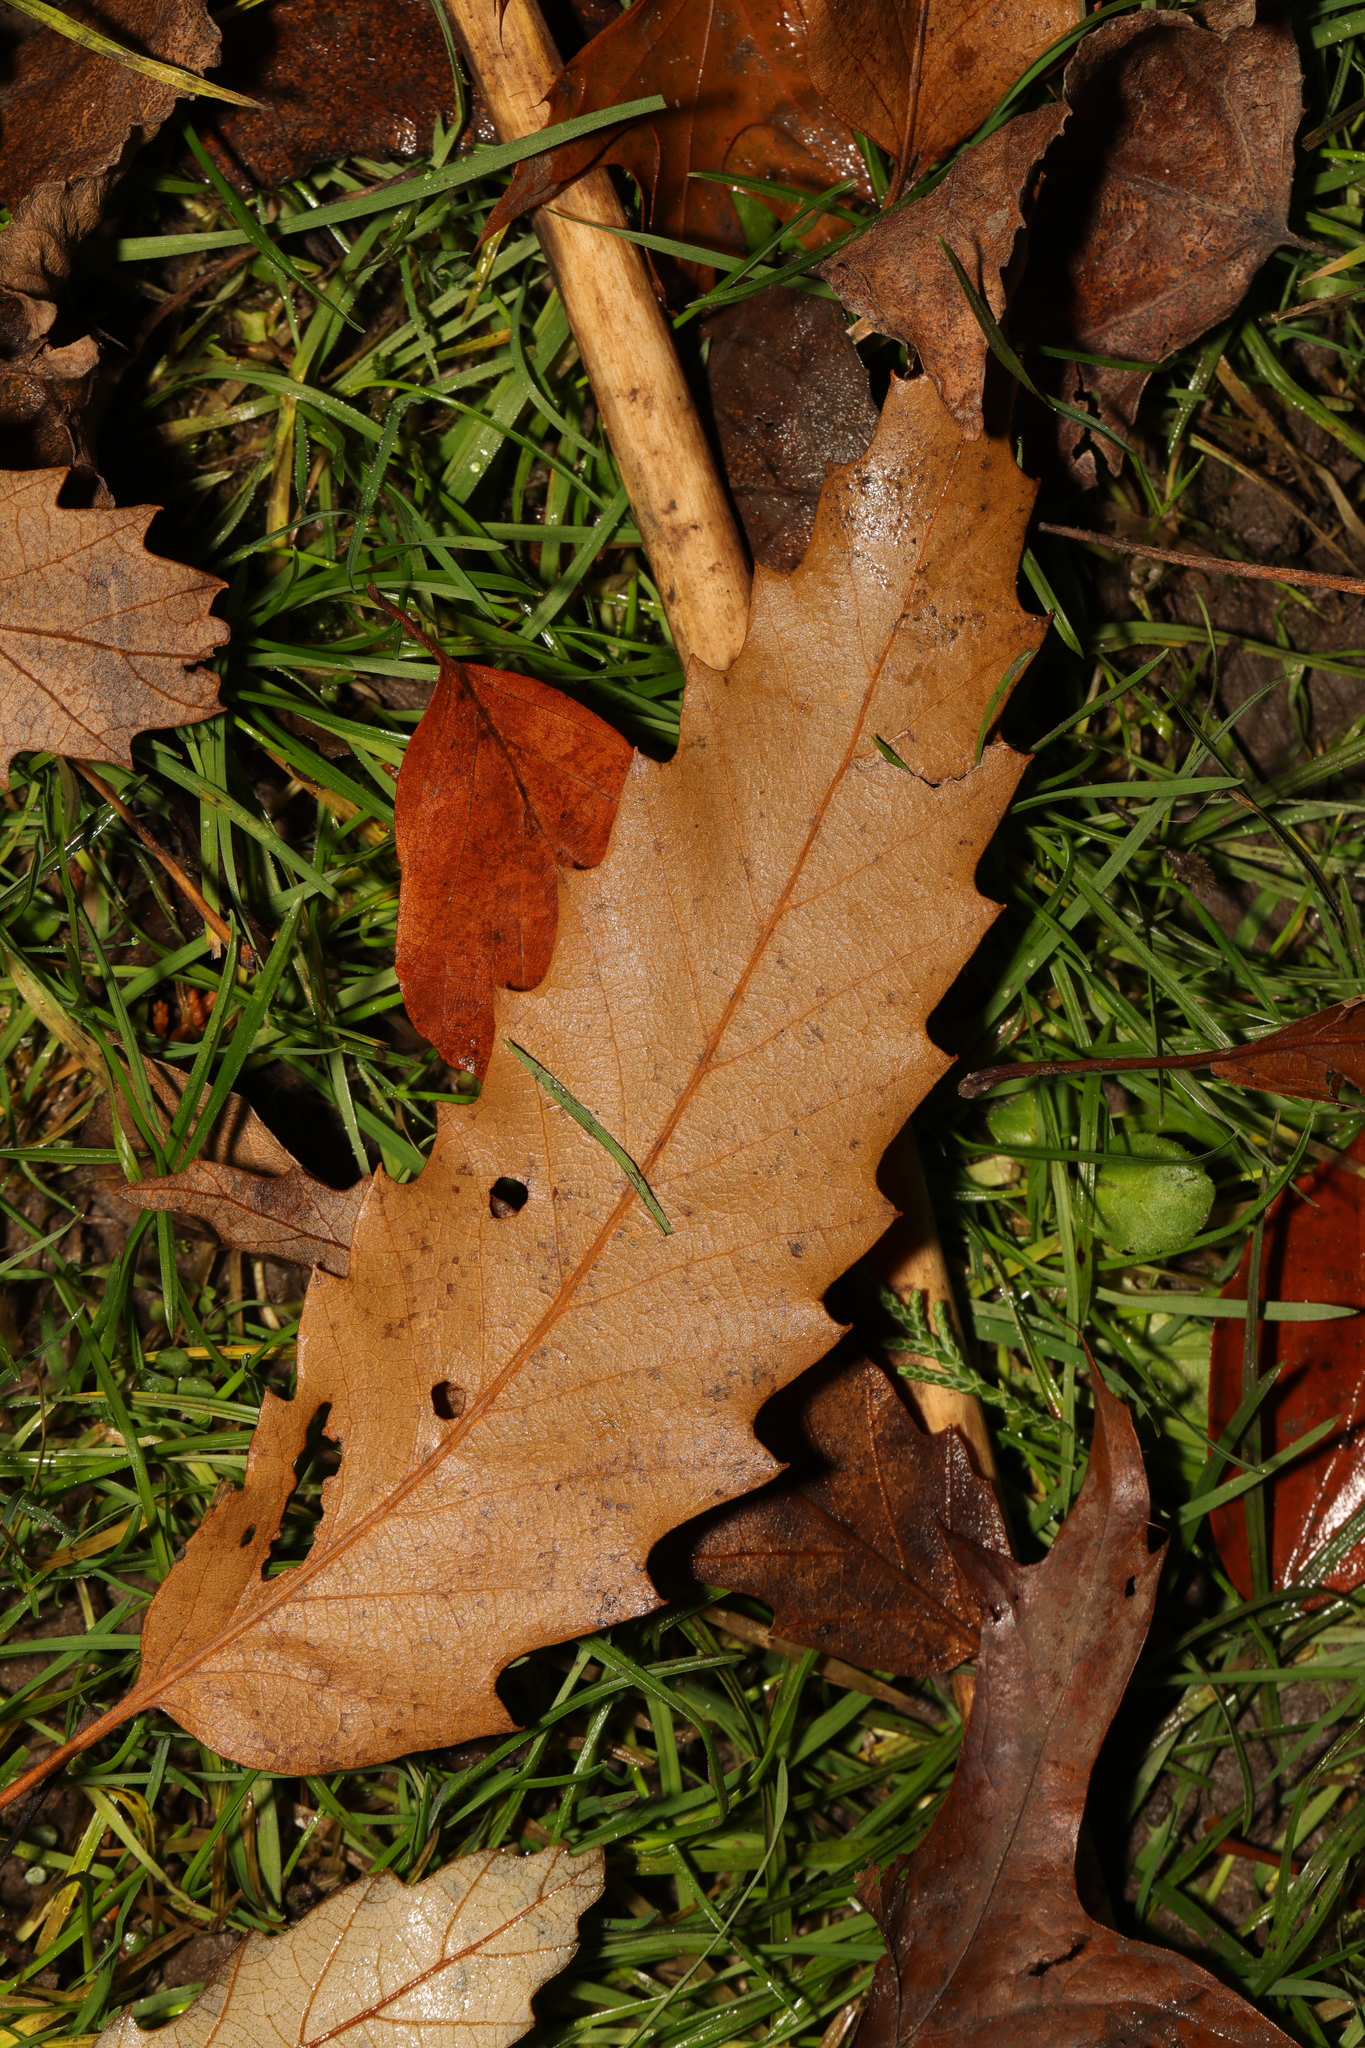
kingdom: Plantae
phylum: Tracheophyta
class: Magnoliopsida
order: Fagales
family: Fagaceae
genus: Castanea
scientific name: Castanea sativa
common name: Sweet chestnut
